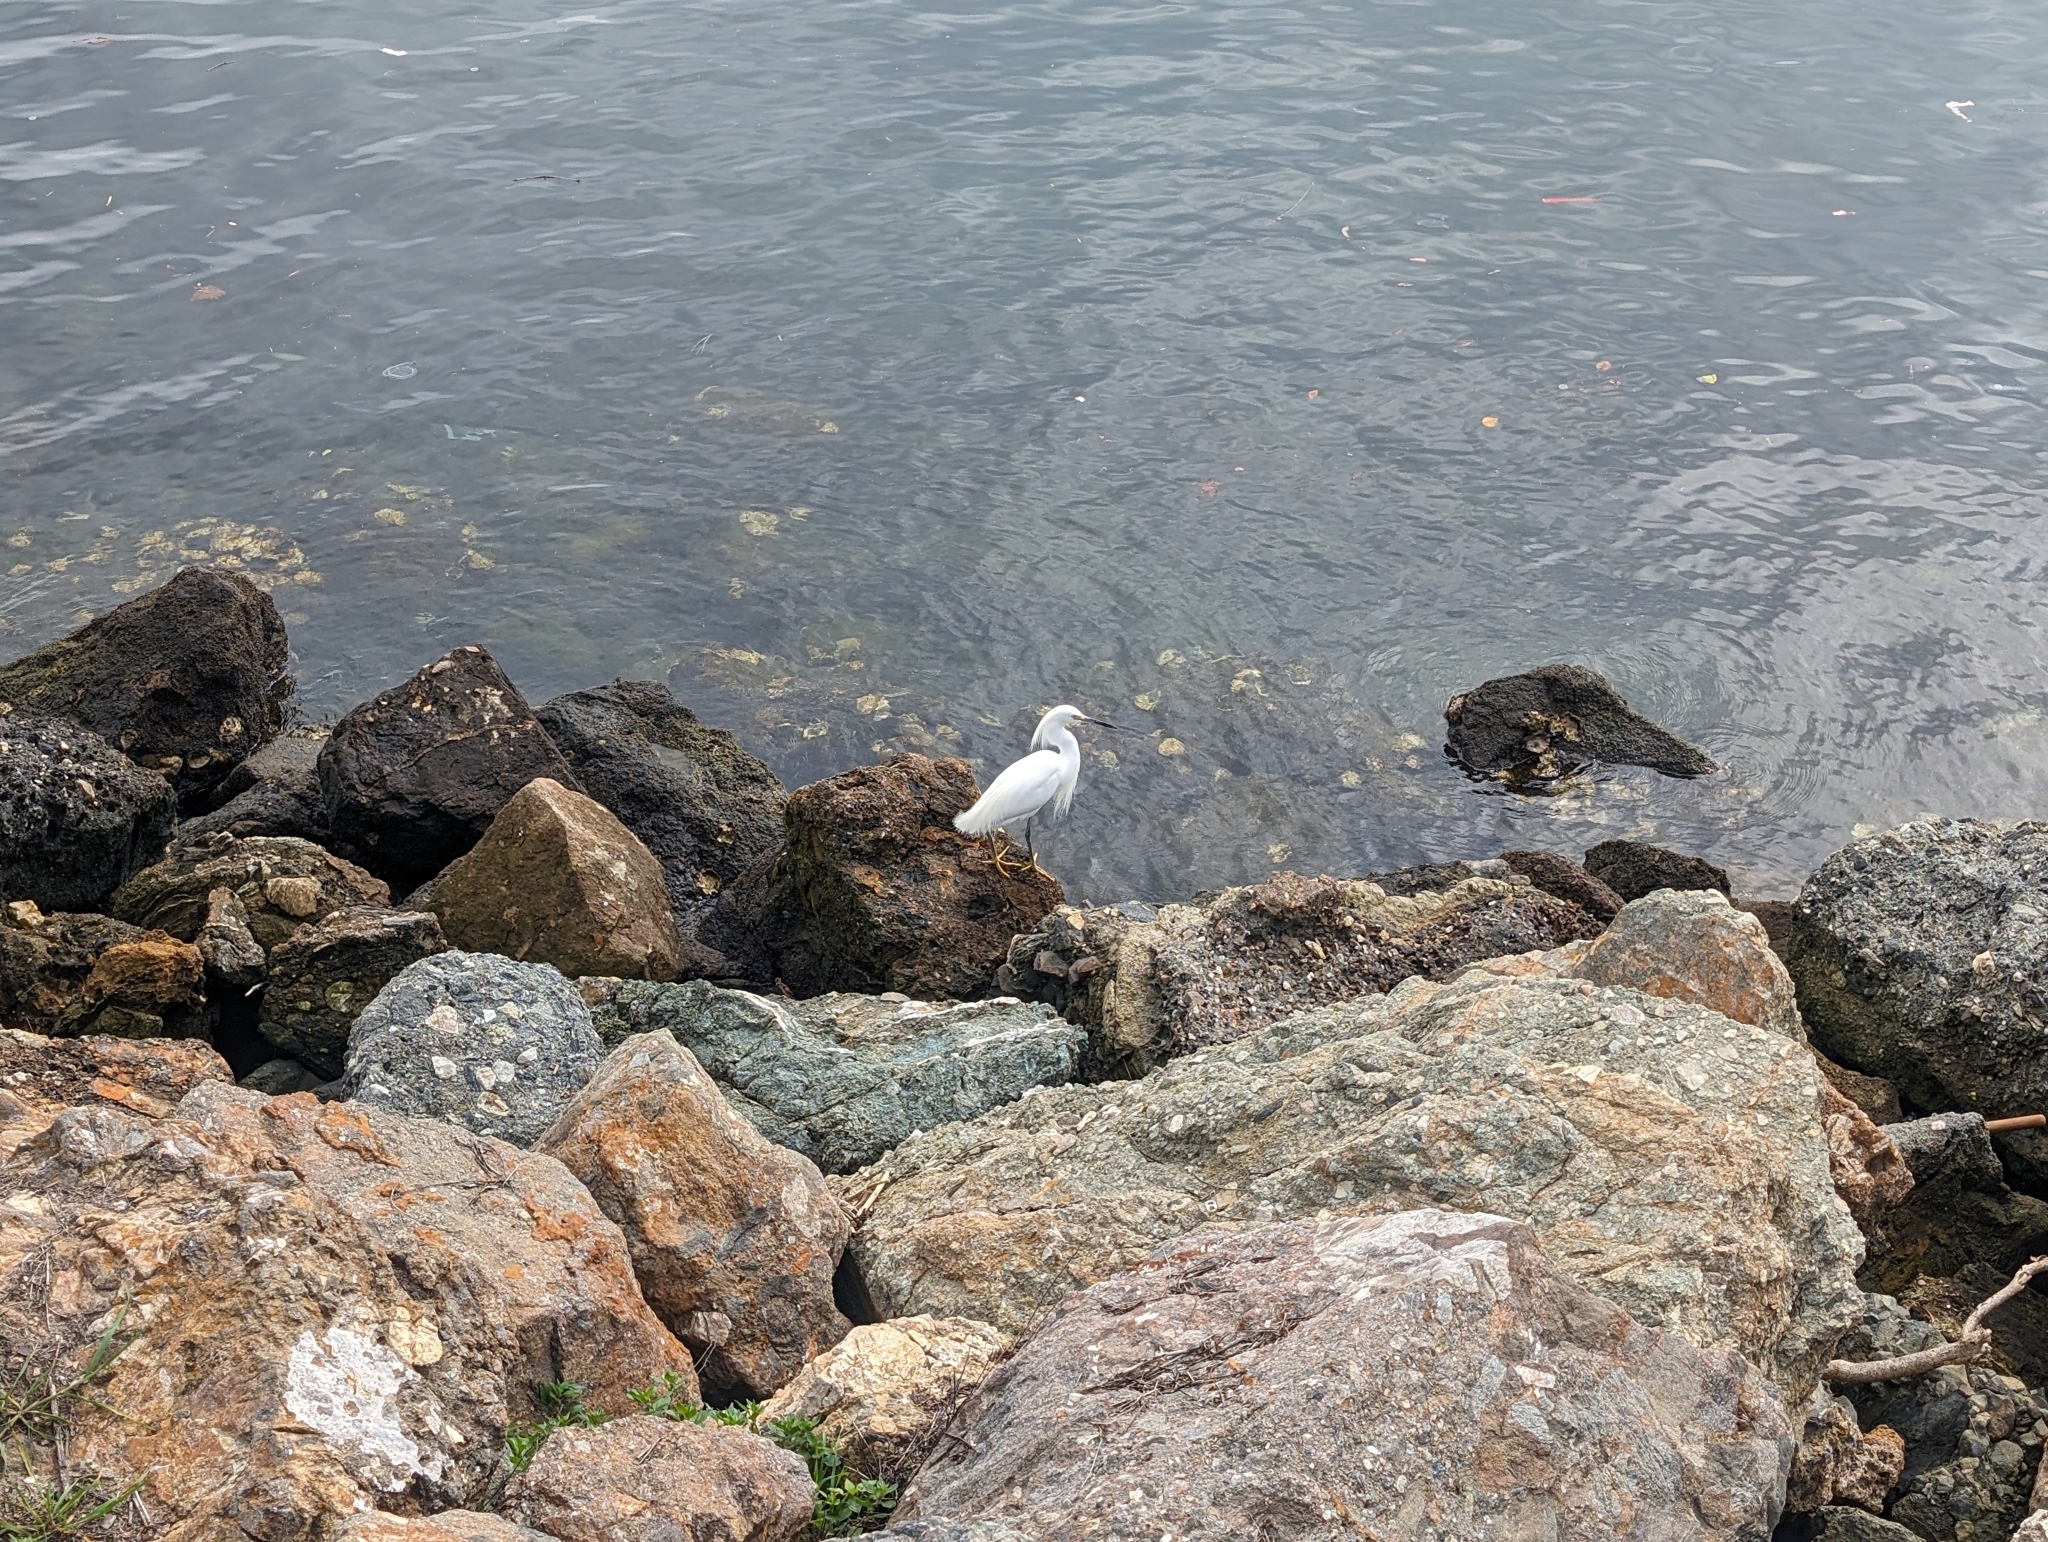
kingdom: Animalia
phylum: Chordata
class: Aves
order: Pelecaniformes
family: Ardeidae
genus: Egretta
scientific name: Egretta thula
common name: Snowy egret
